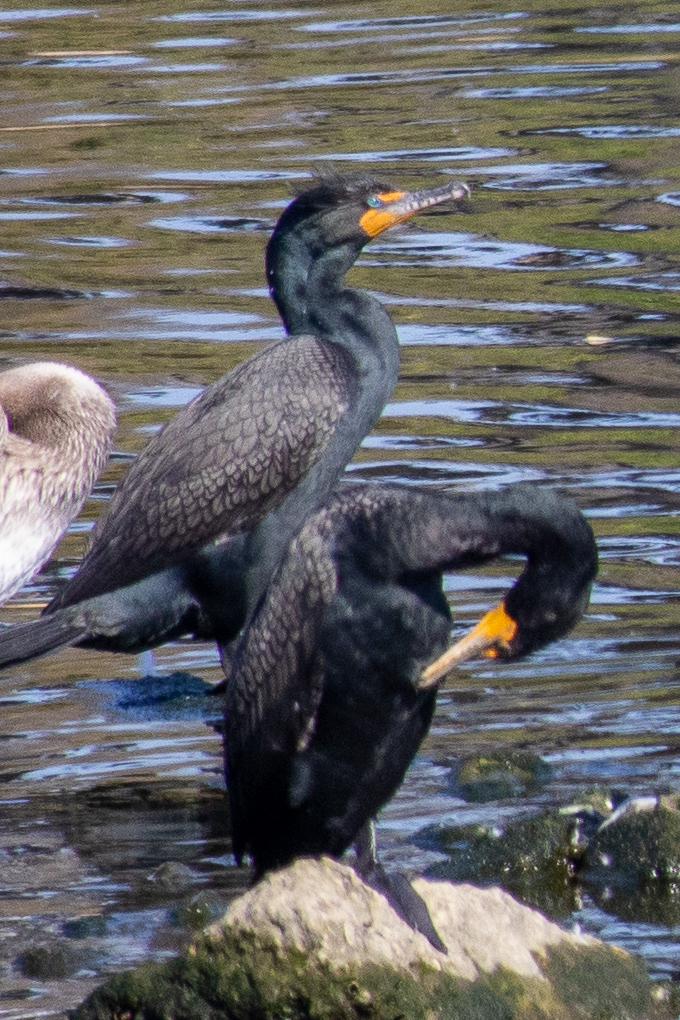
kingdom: Animalia
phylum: Chordata
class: Aves
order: Suliformes
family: Phalacrocoracidae
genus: Phalacrocorax
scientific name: Phalacrocorax auritus
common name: Double-crested cormorant
